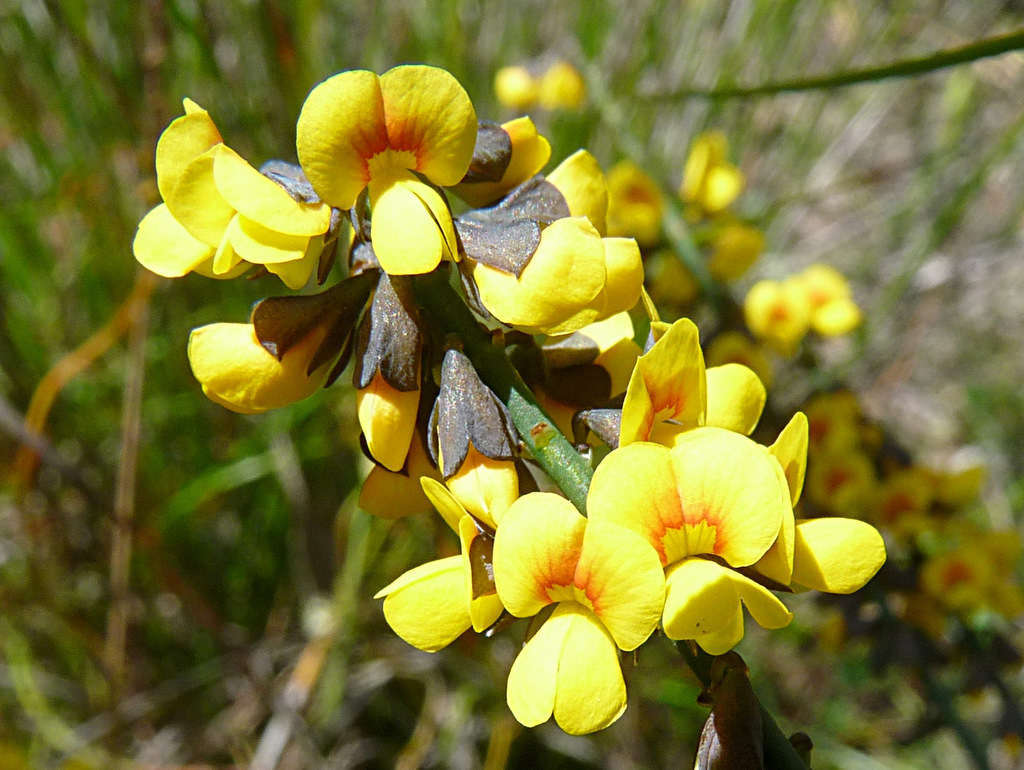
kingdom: Plantae
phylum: Tracheophyta
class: Magnoliopsida
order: Fabales
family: Fabaceae
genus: Sphaerolobium
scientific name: Sphaerolobium minus
